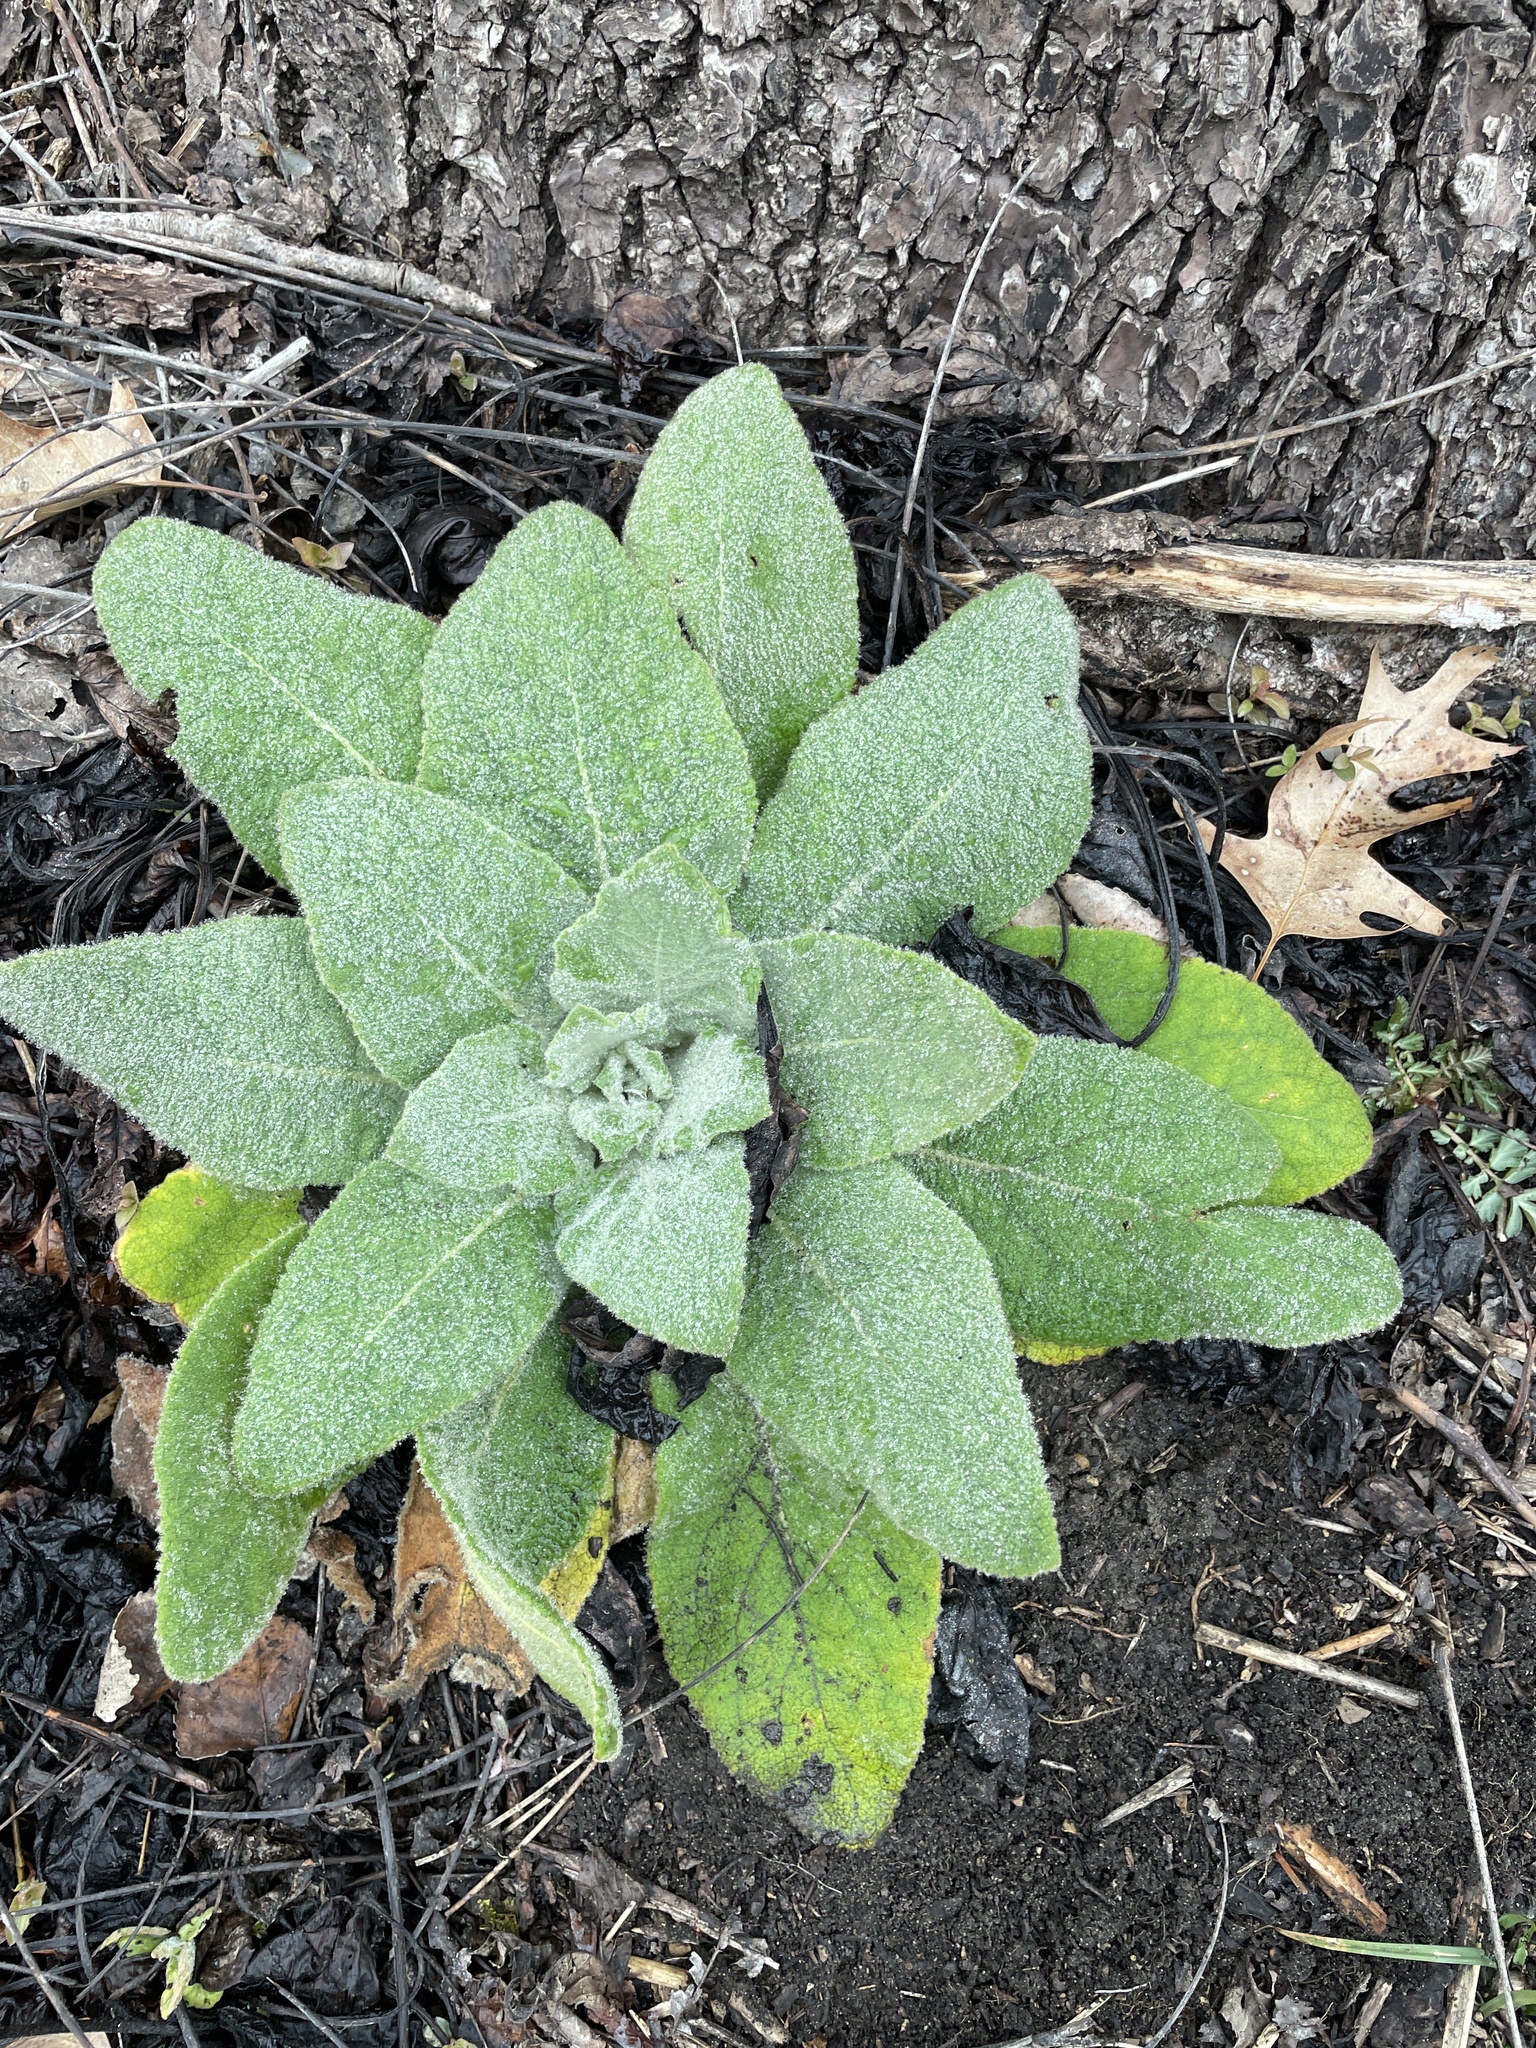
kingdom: Plantae
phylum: Tracheophyta
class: Magnoliopsida
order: Lamiales
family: Scrophulariaceae
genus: Verbascum
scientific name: Verbascum thapsus
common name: Common mullein
